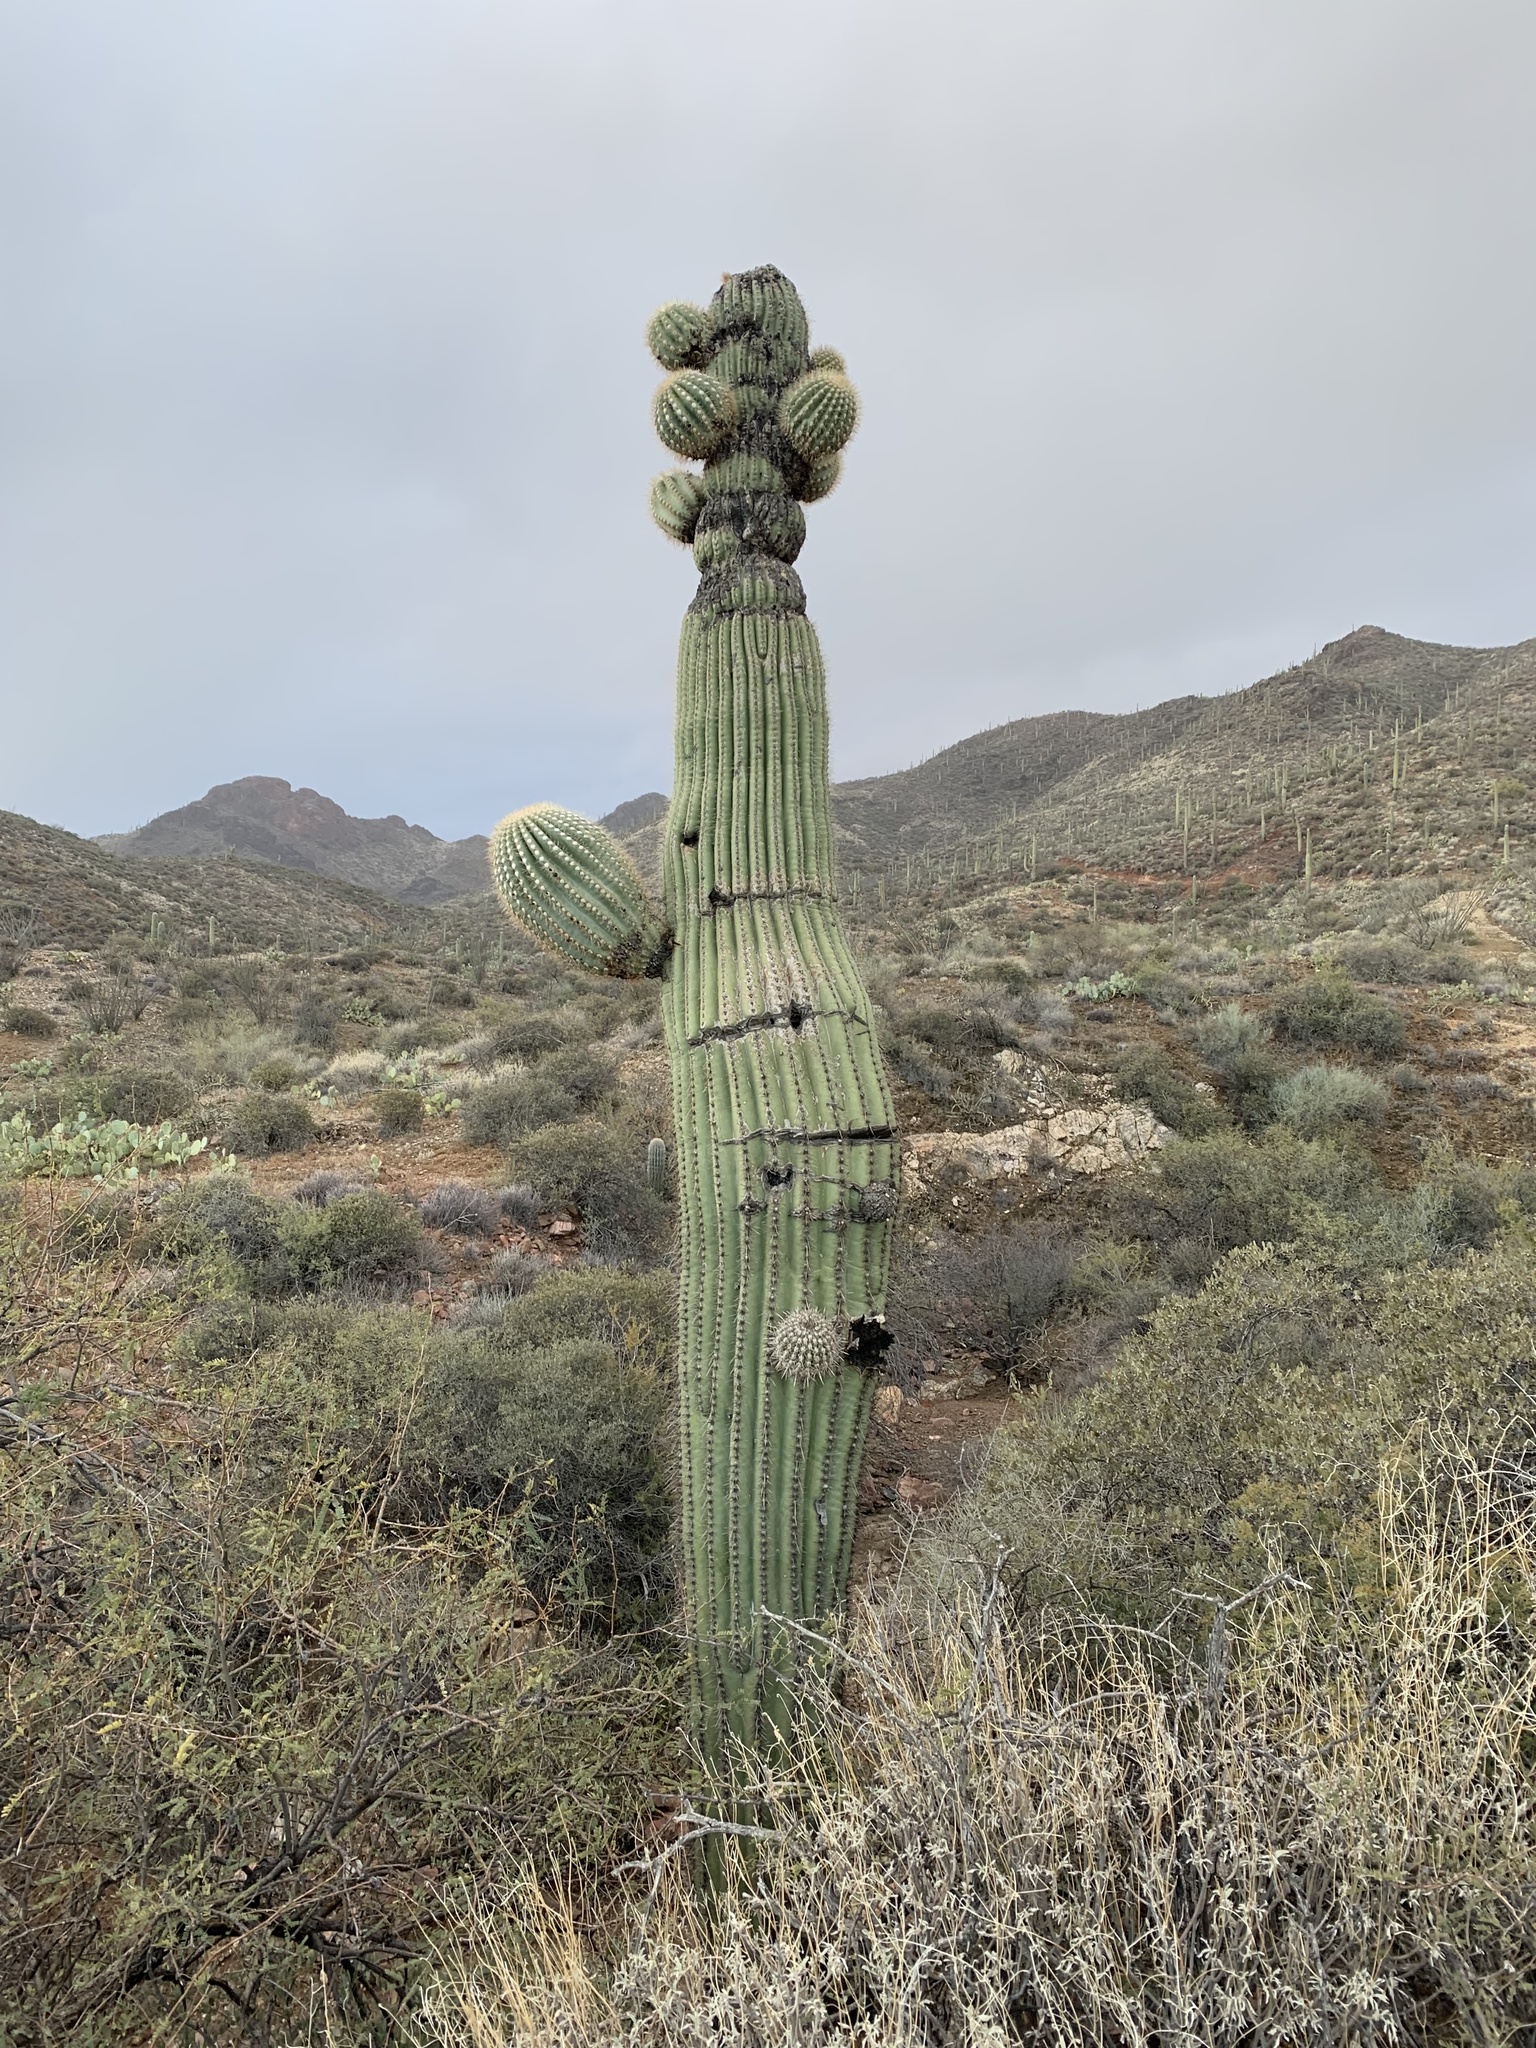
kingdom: Plantae
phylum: Tracheophyta
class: Magnoliopsida
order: Caryophyllales
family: Cactaceae
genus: Carnegiea
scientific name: Carnegiea gigantea
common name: Saguaro
